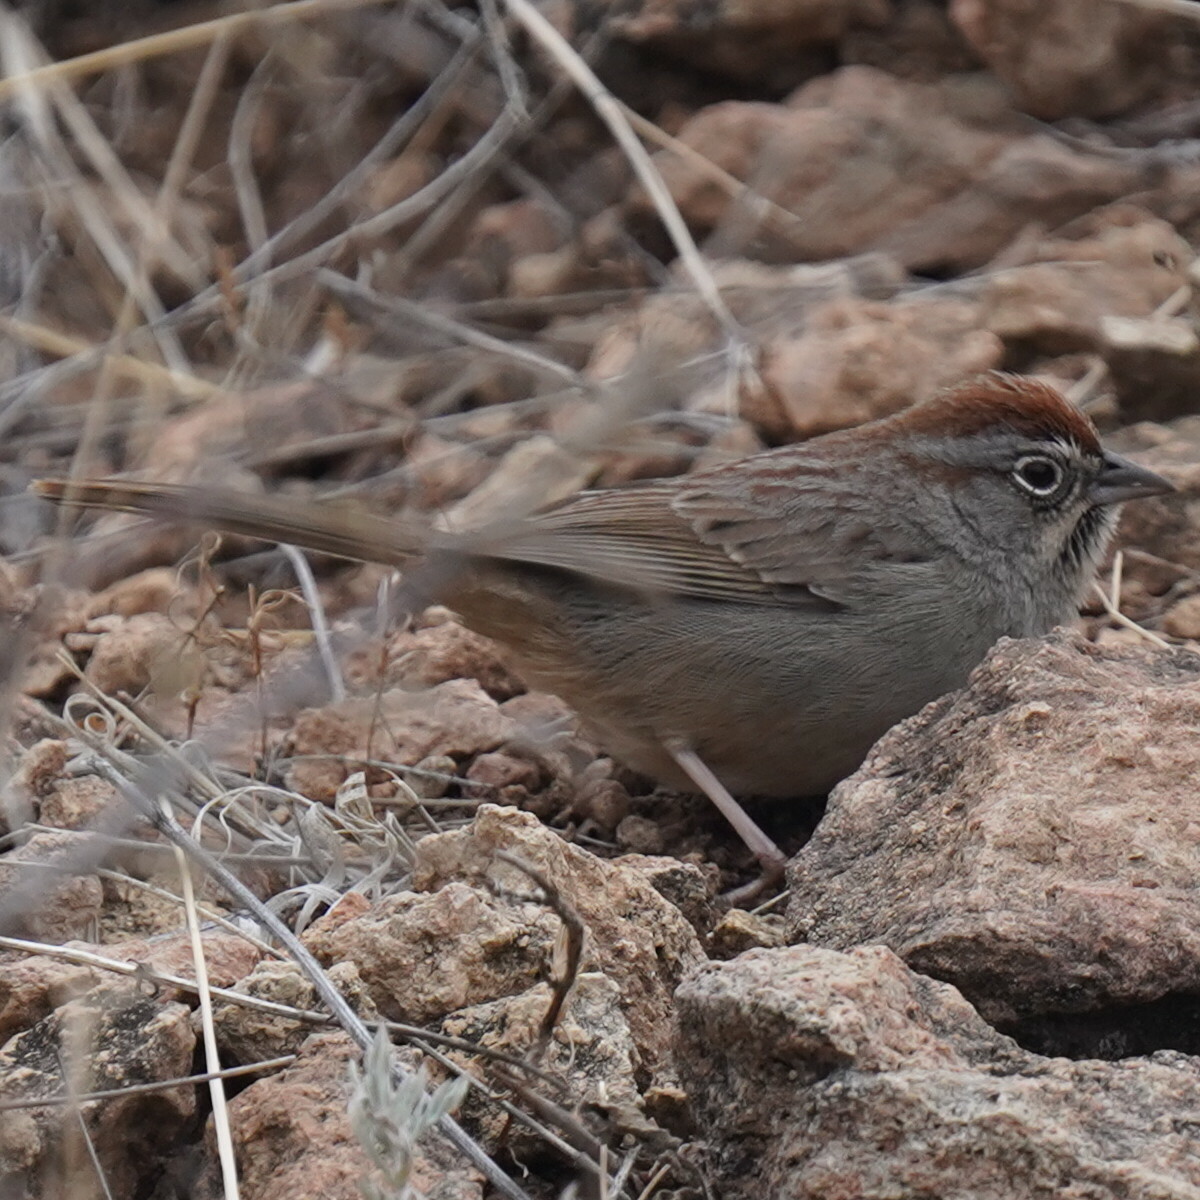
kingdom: Animalia
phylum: Chordata
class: Aves
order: Passeriformes
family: Passerellidae
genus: Aimophila
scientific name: Aimophila ruficeps
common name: Rufous-crowned sparrow
